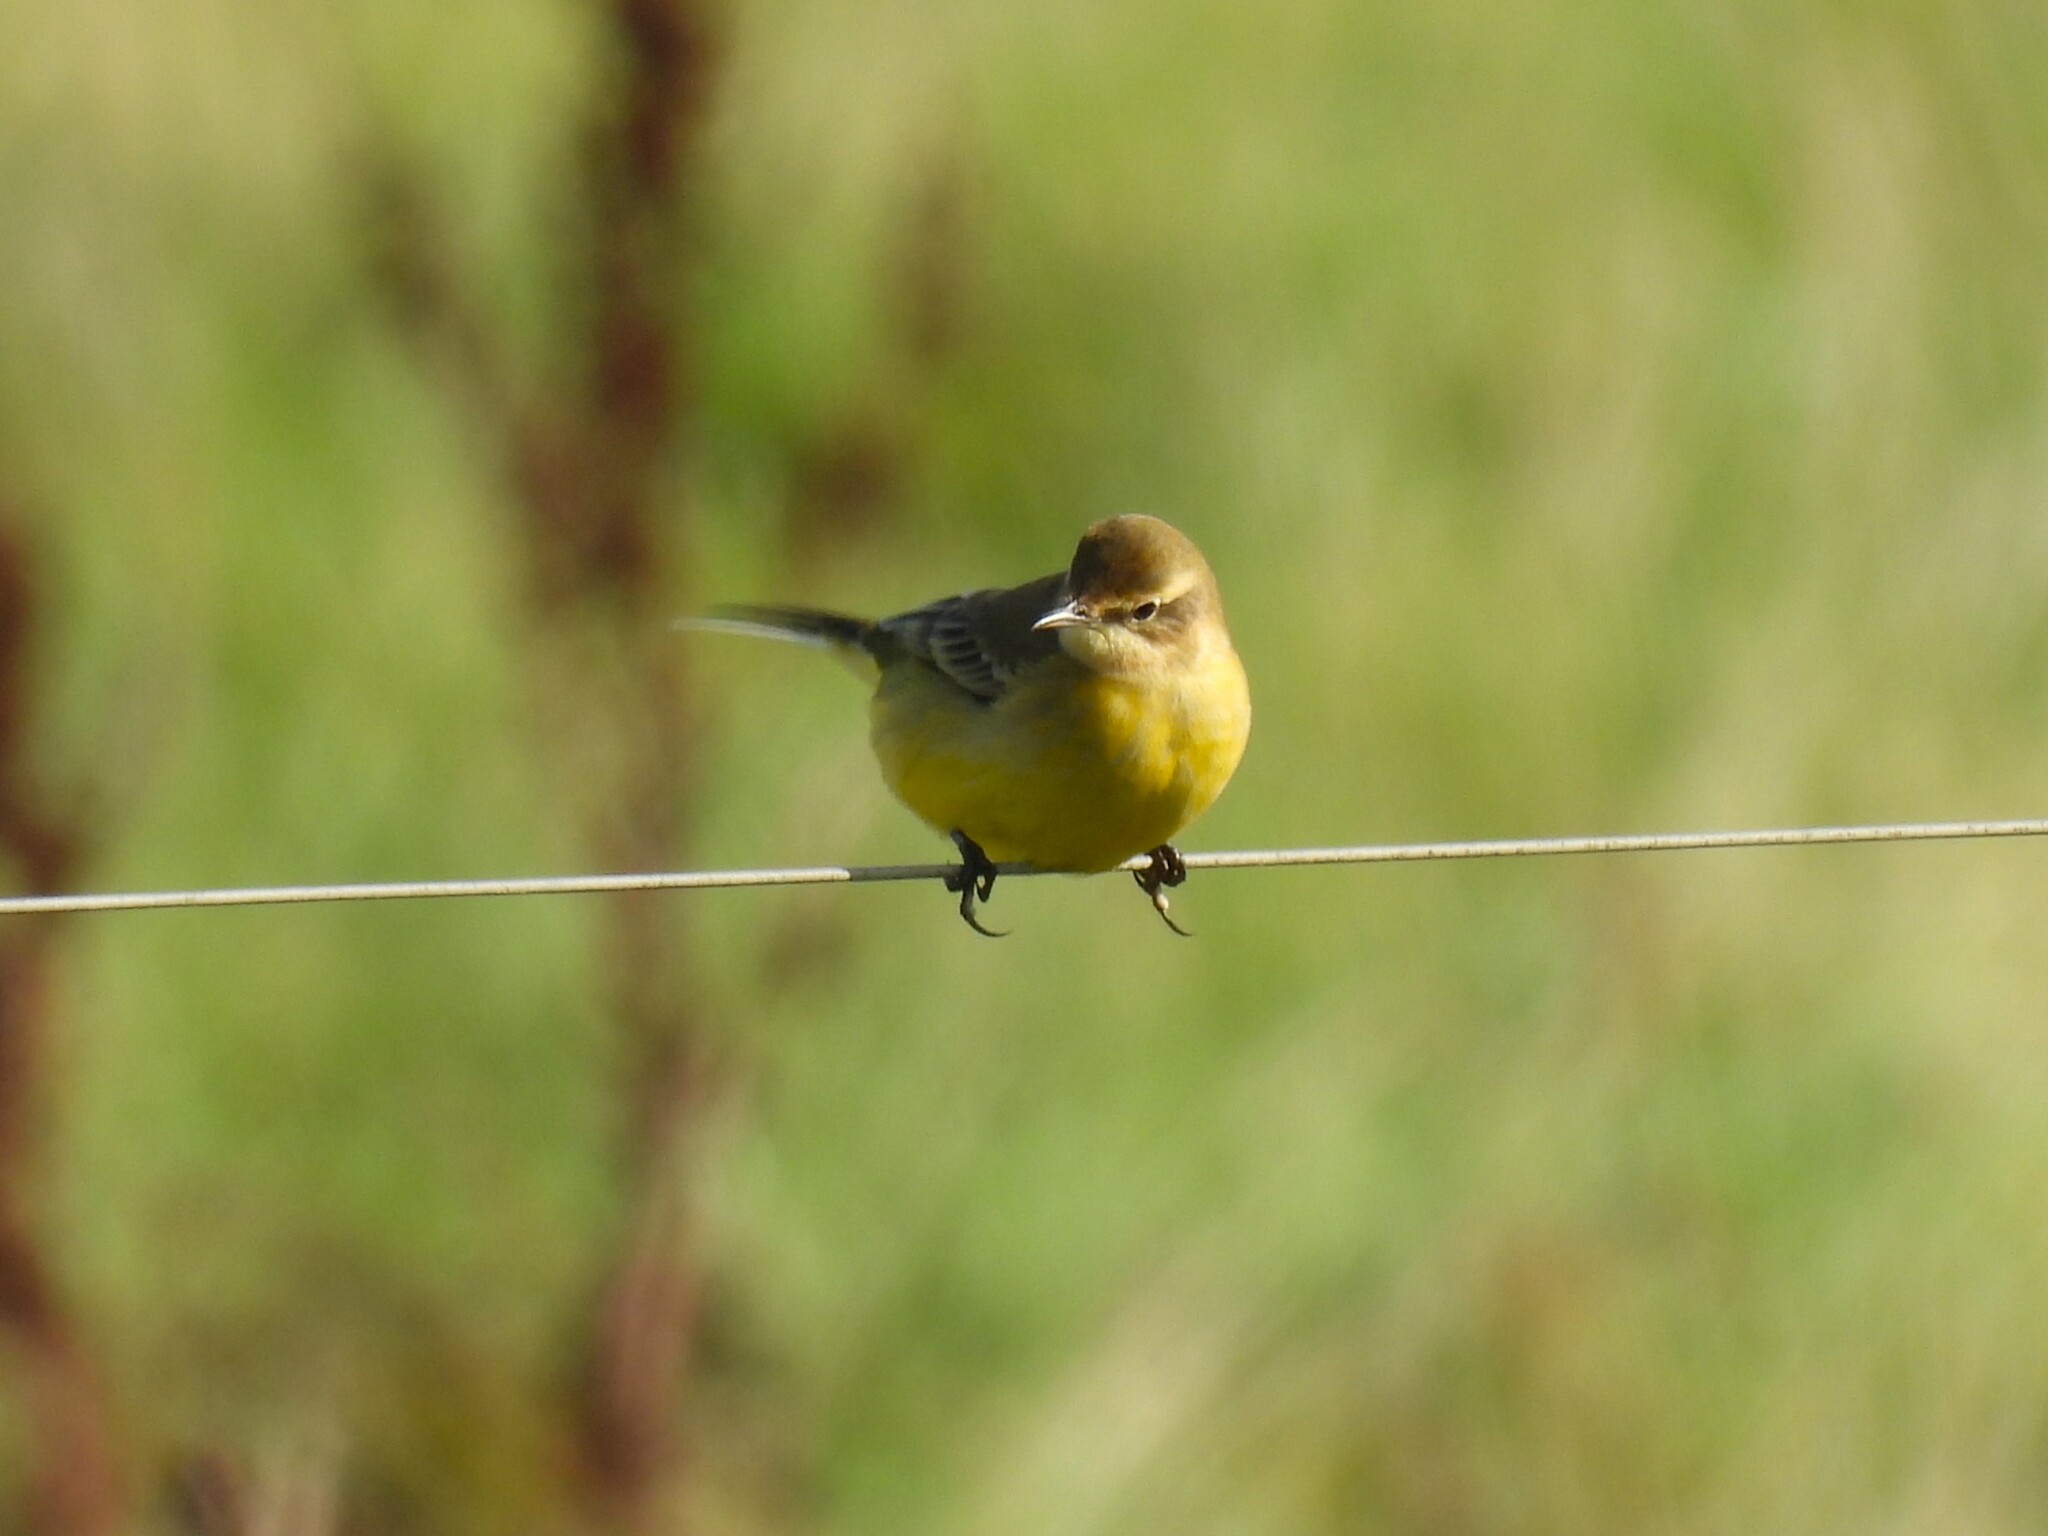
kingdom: Animalia
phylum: Chordata
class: Aves
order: Passeriformes
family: Motacillidae
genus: Motacilla
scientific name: Motacilla flava
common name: Western yellow wagtail
